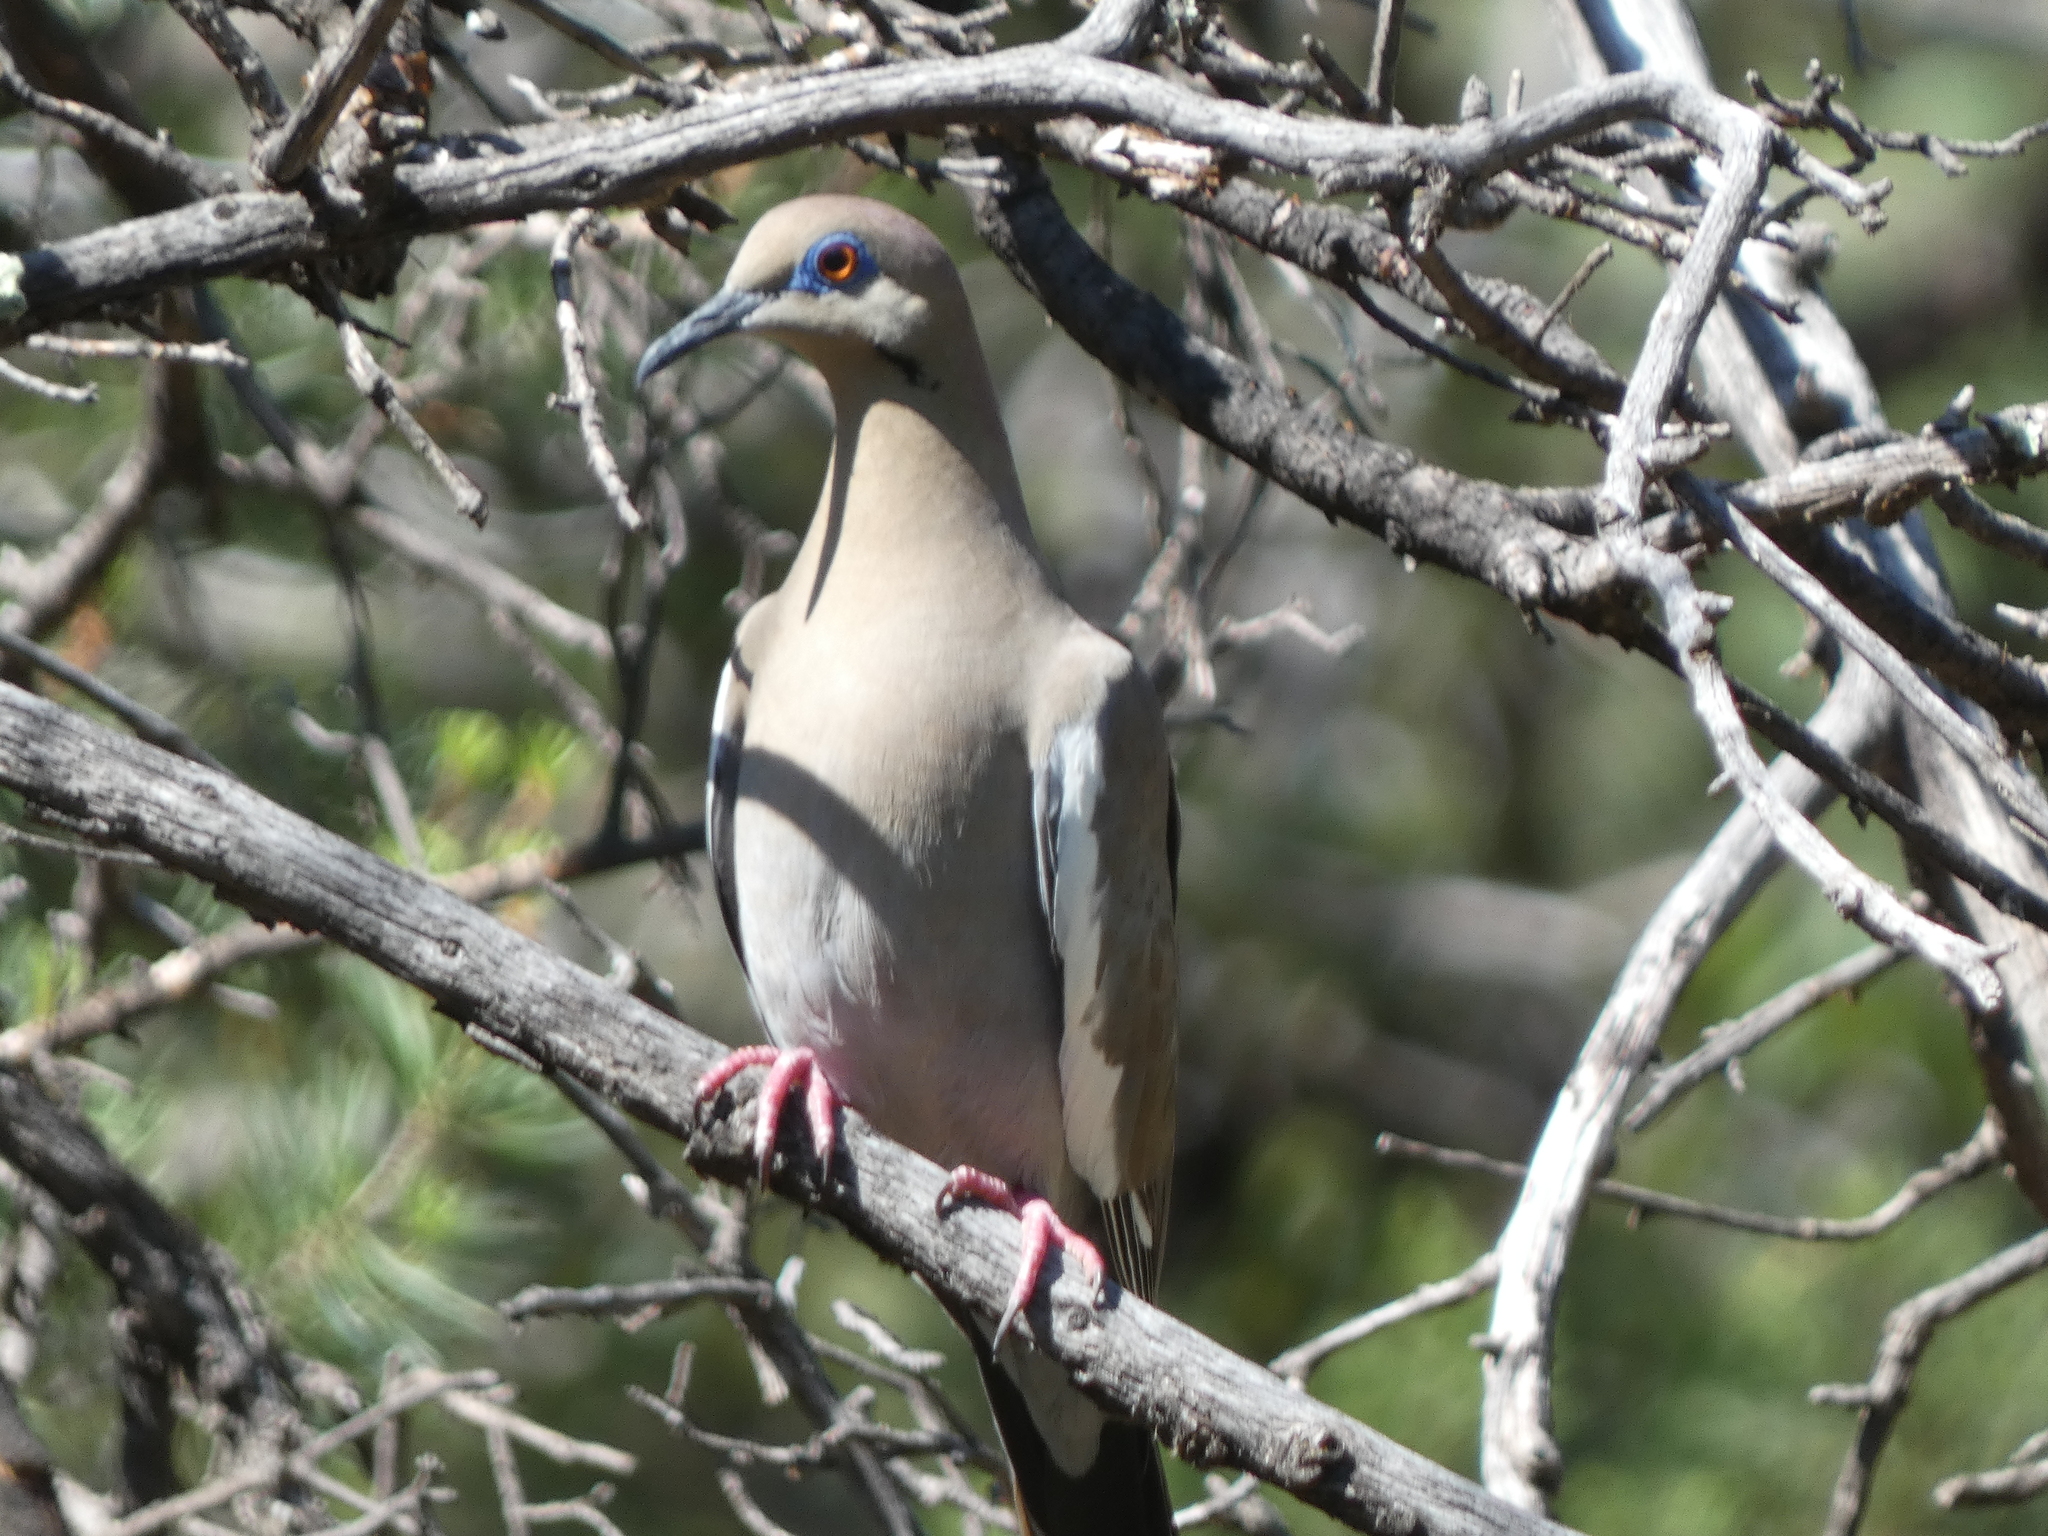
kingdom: Animalia
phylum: Chordata
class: Aves
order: Columbiformes
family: Columbidae
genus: Zenaida
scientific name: Zenaida asiatica
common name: White-winged dove
